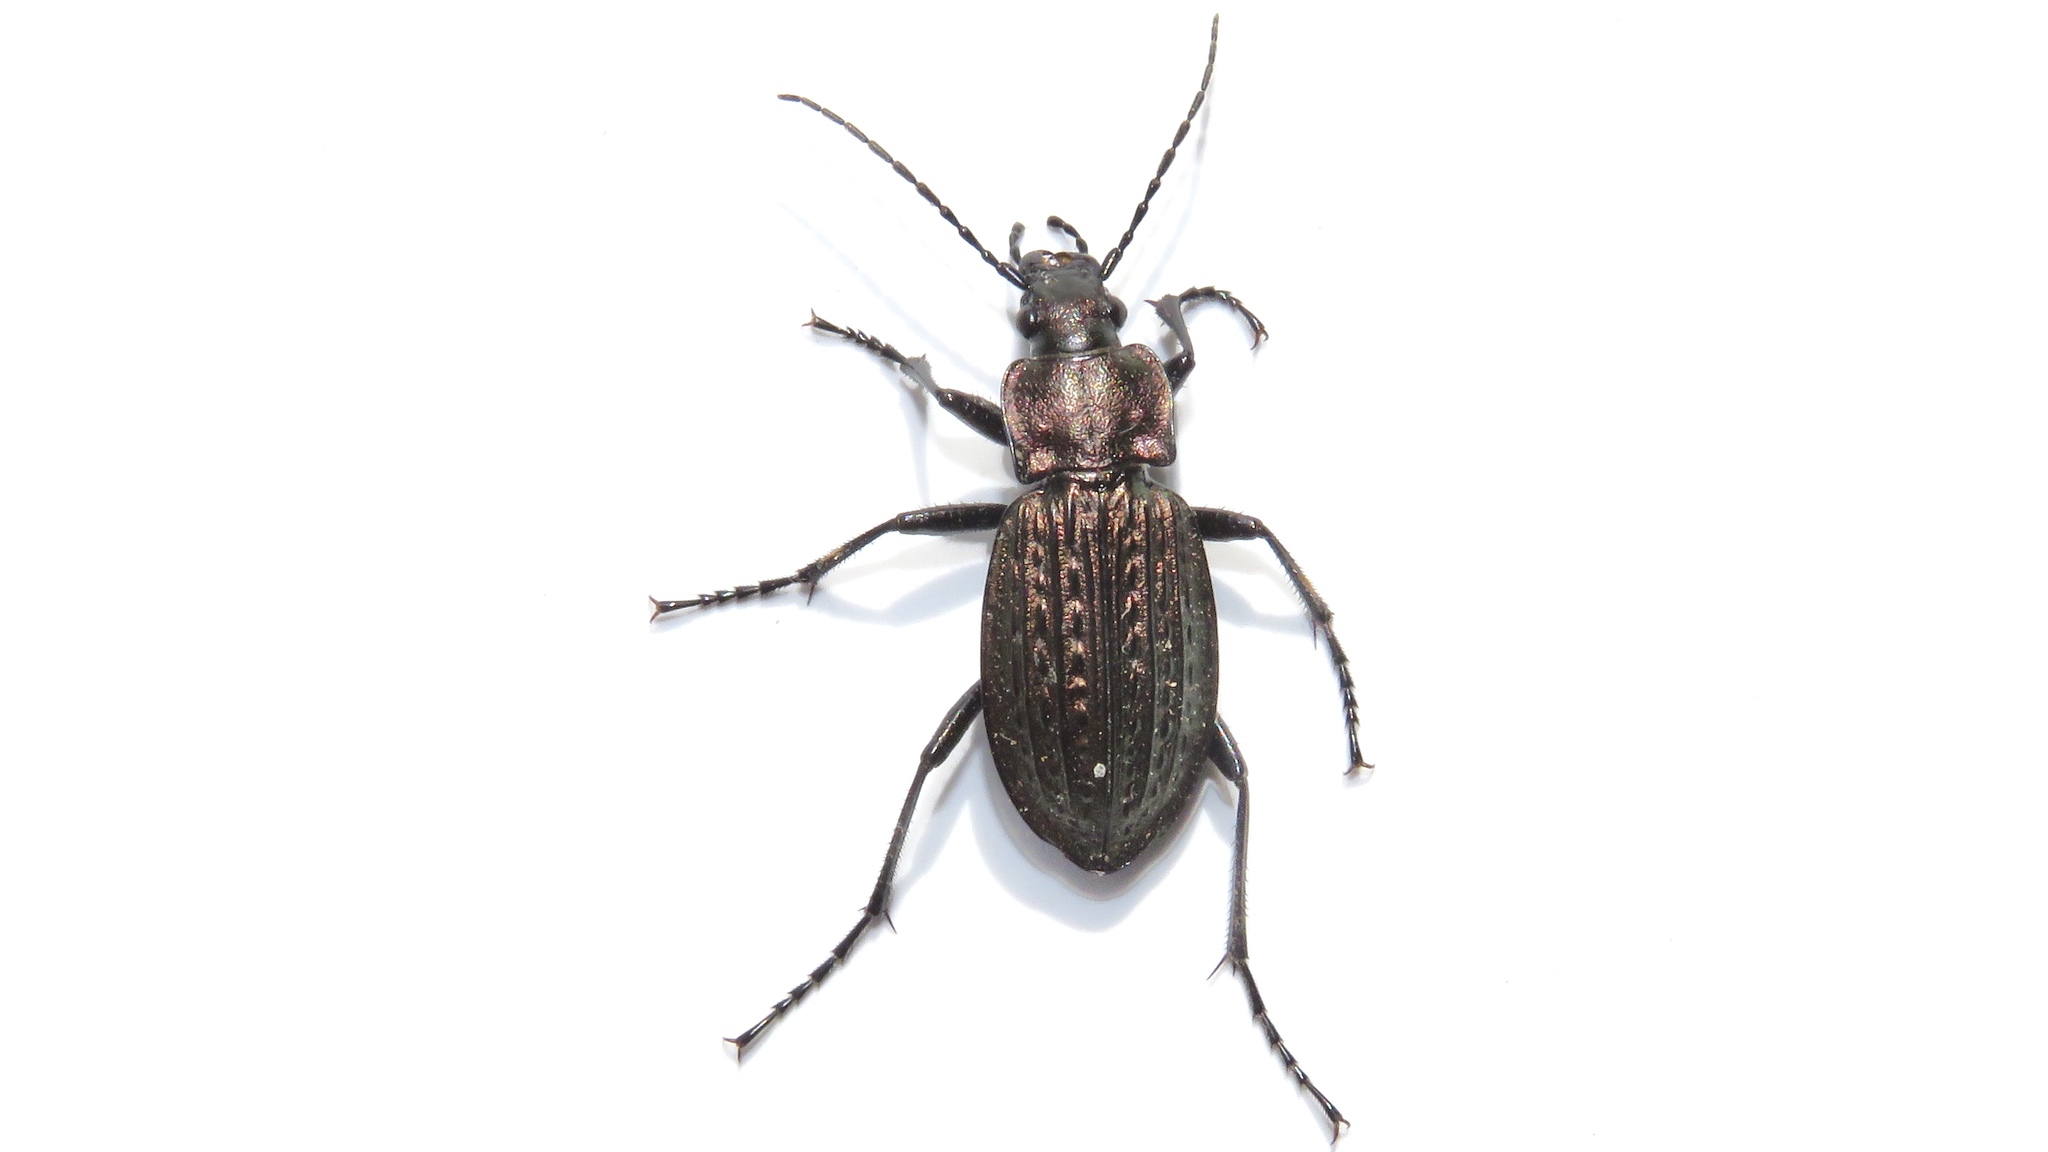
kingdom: Animalia
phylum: Arthropoda
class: Insecta
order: Coleoptera
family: Carabidae
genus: Carabus
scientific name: Carabus granulatus
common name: Granulate ground beetle
